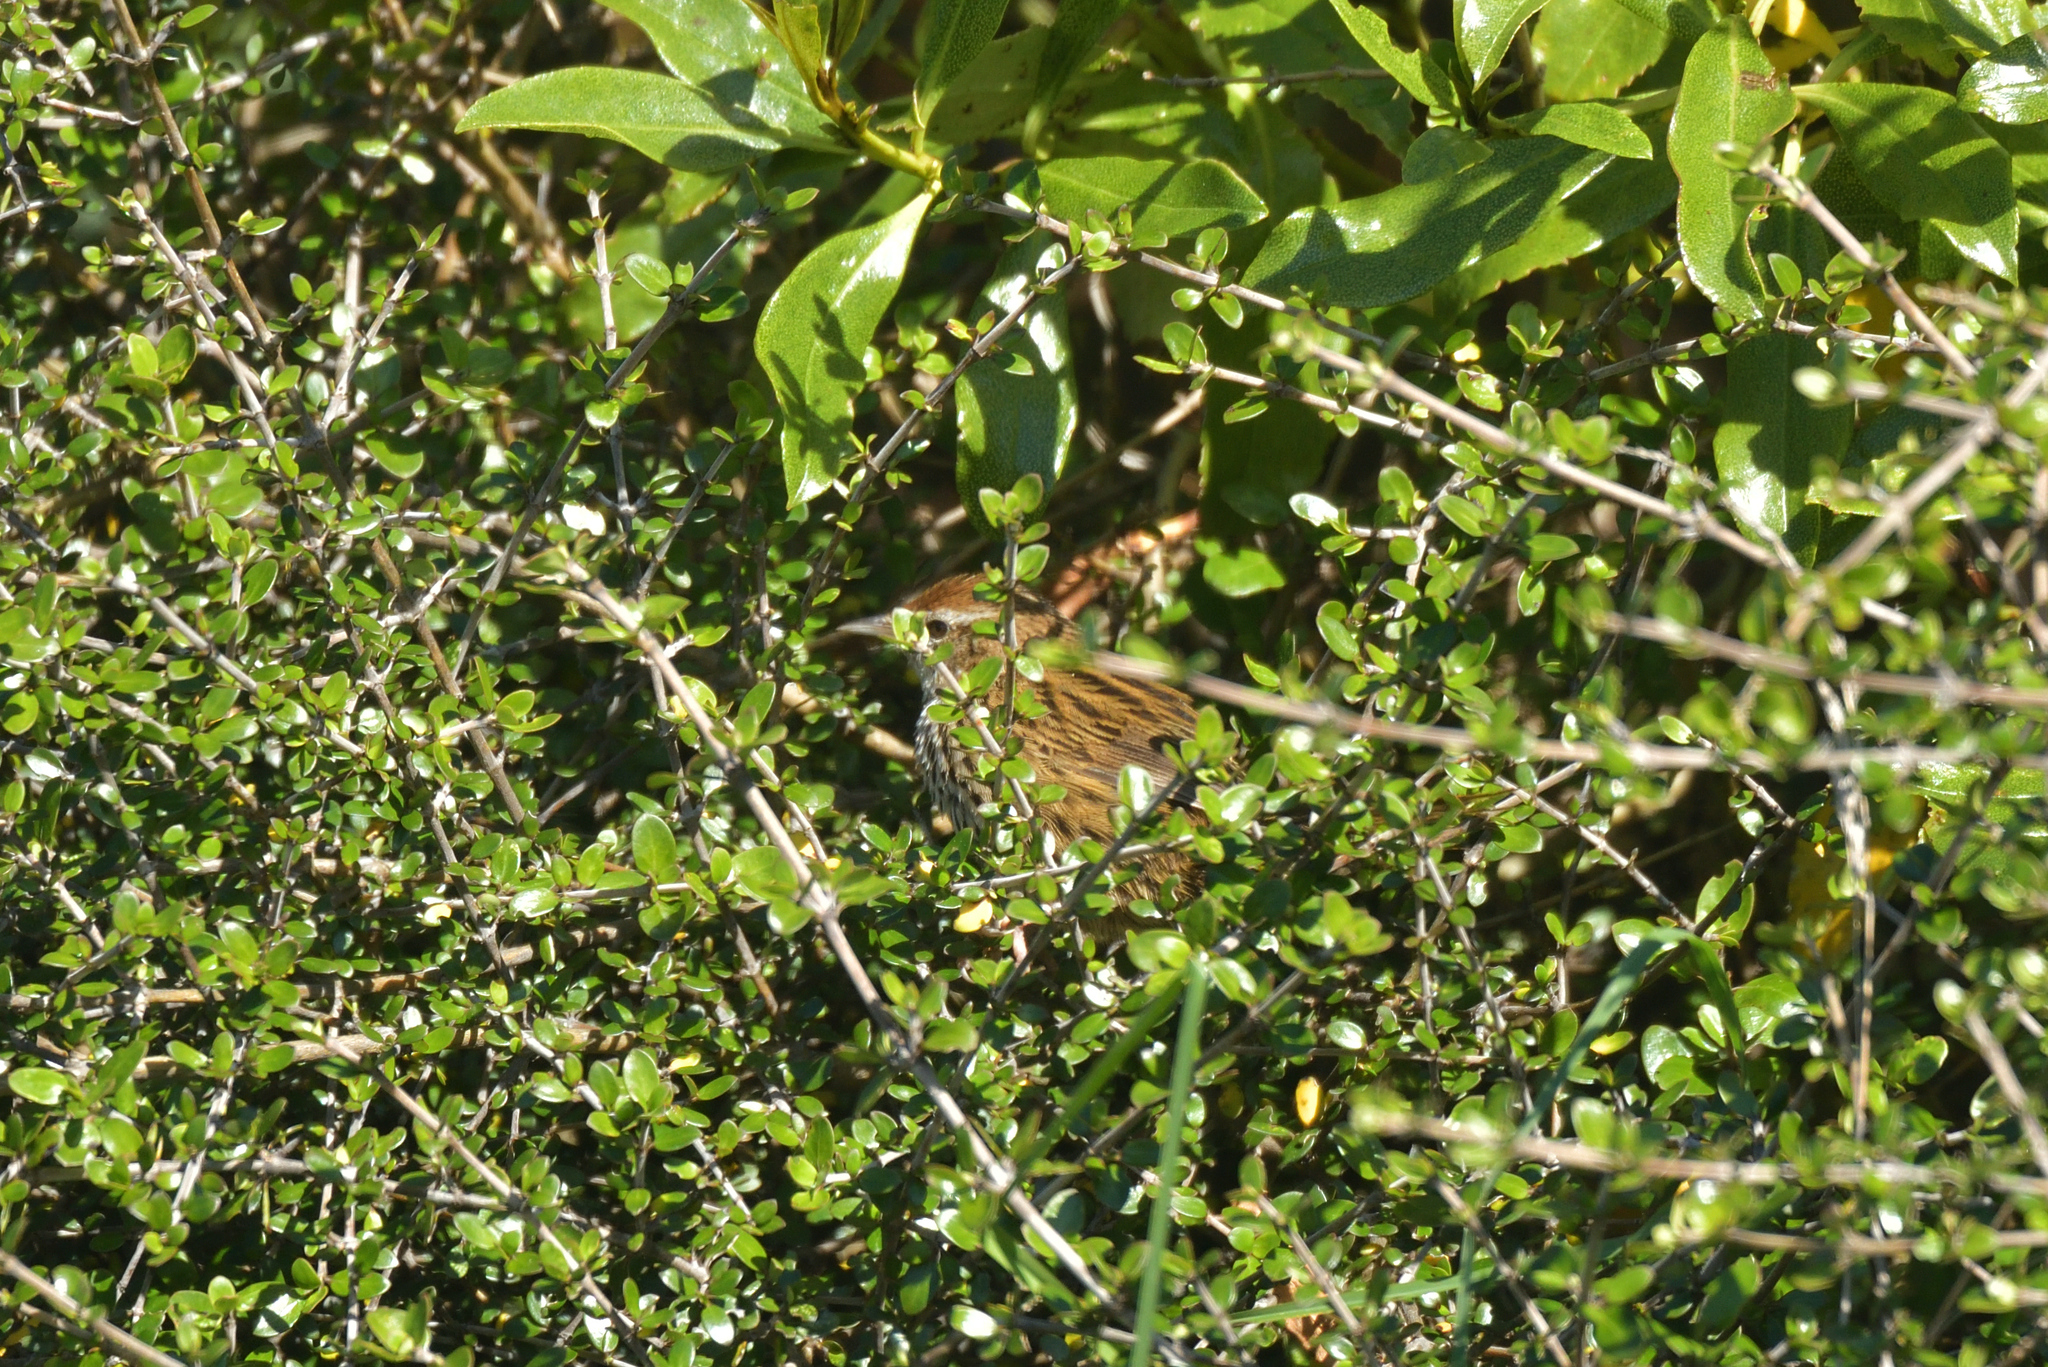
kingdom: Animalia
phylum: Chordata
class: Aves
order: Passeriformes
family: Locustellidae
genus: Megalurus
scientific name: Megalurus punctatus
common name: New zealand fernbird
